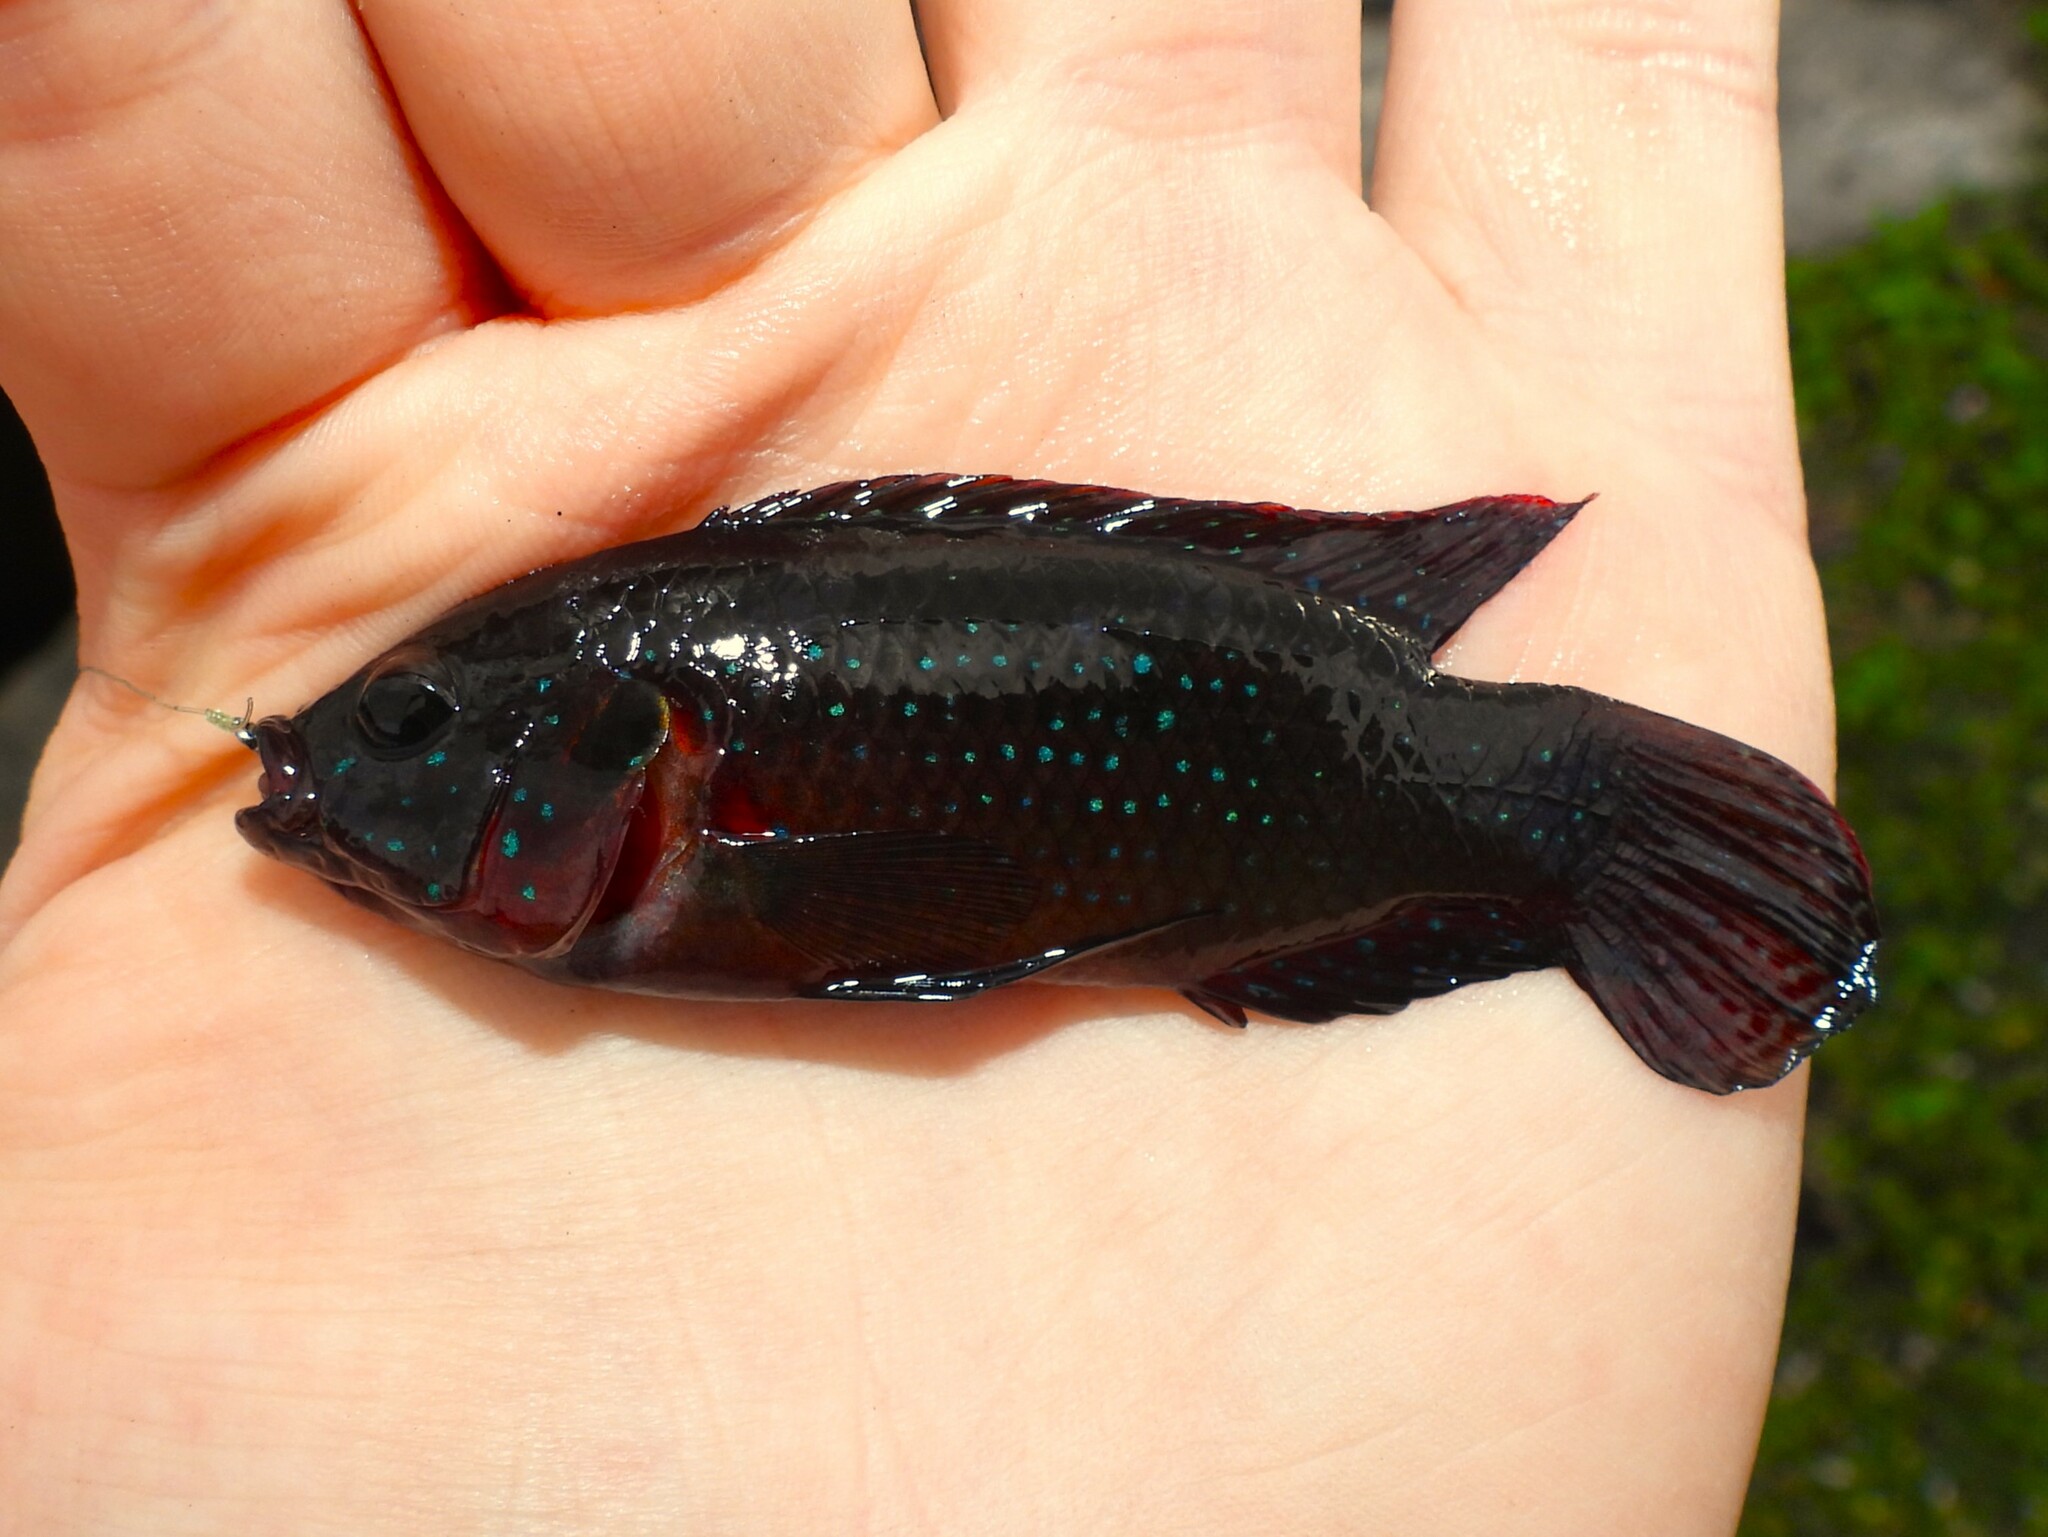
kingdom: Animalia
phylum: Chordata
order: Perciformes
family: Cichlidae
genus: Rubricatochromis
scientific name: Rubricatochromis
